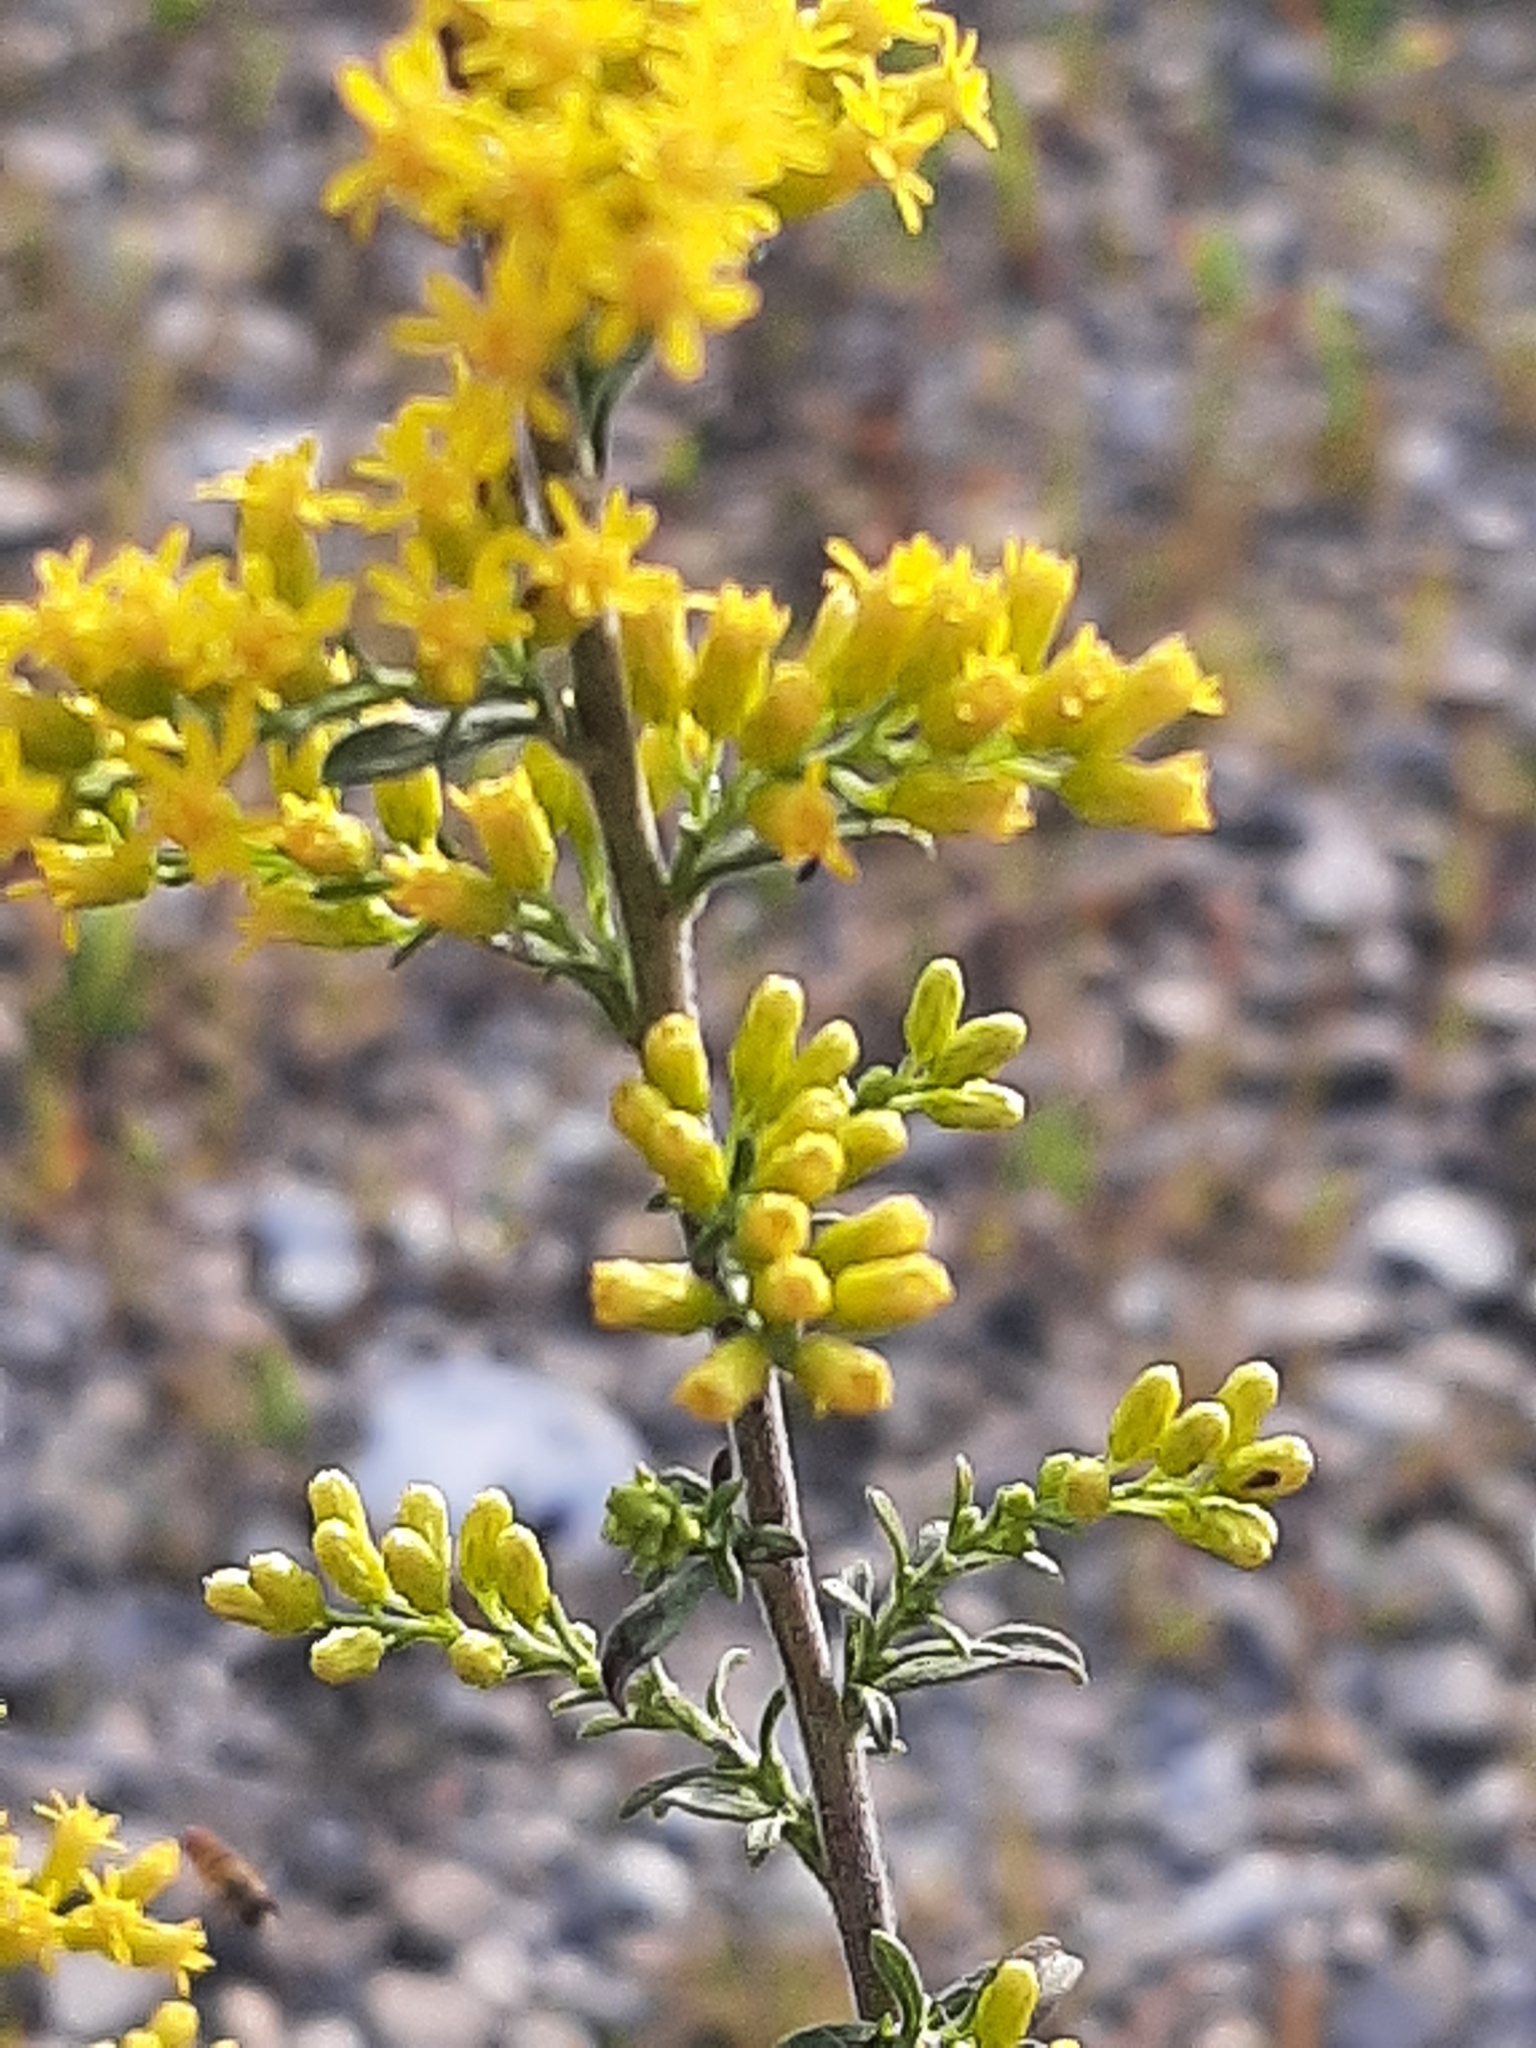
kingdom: Plantae
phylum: Tracheophyta
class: Magnoliopsida
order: Asterales
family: Asteraceae
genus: Solidago
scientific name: Solidago nemoralis
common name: Grey goldenrod
